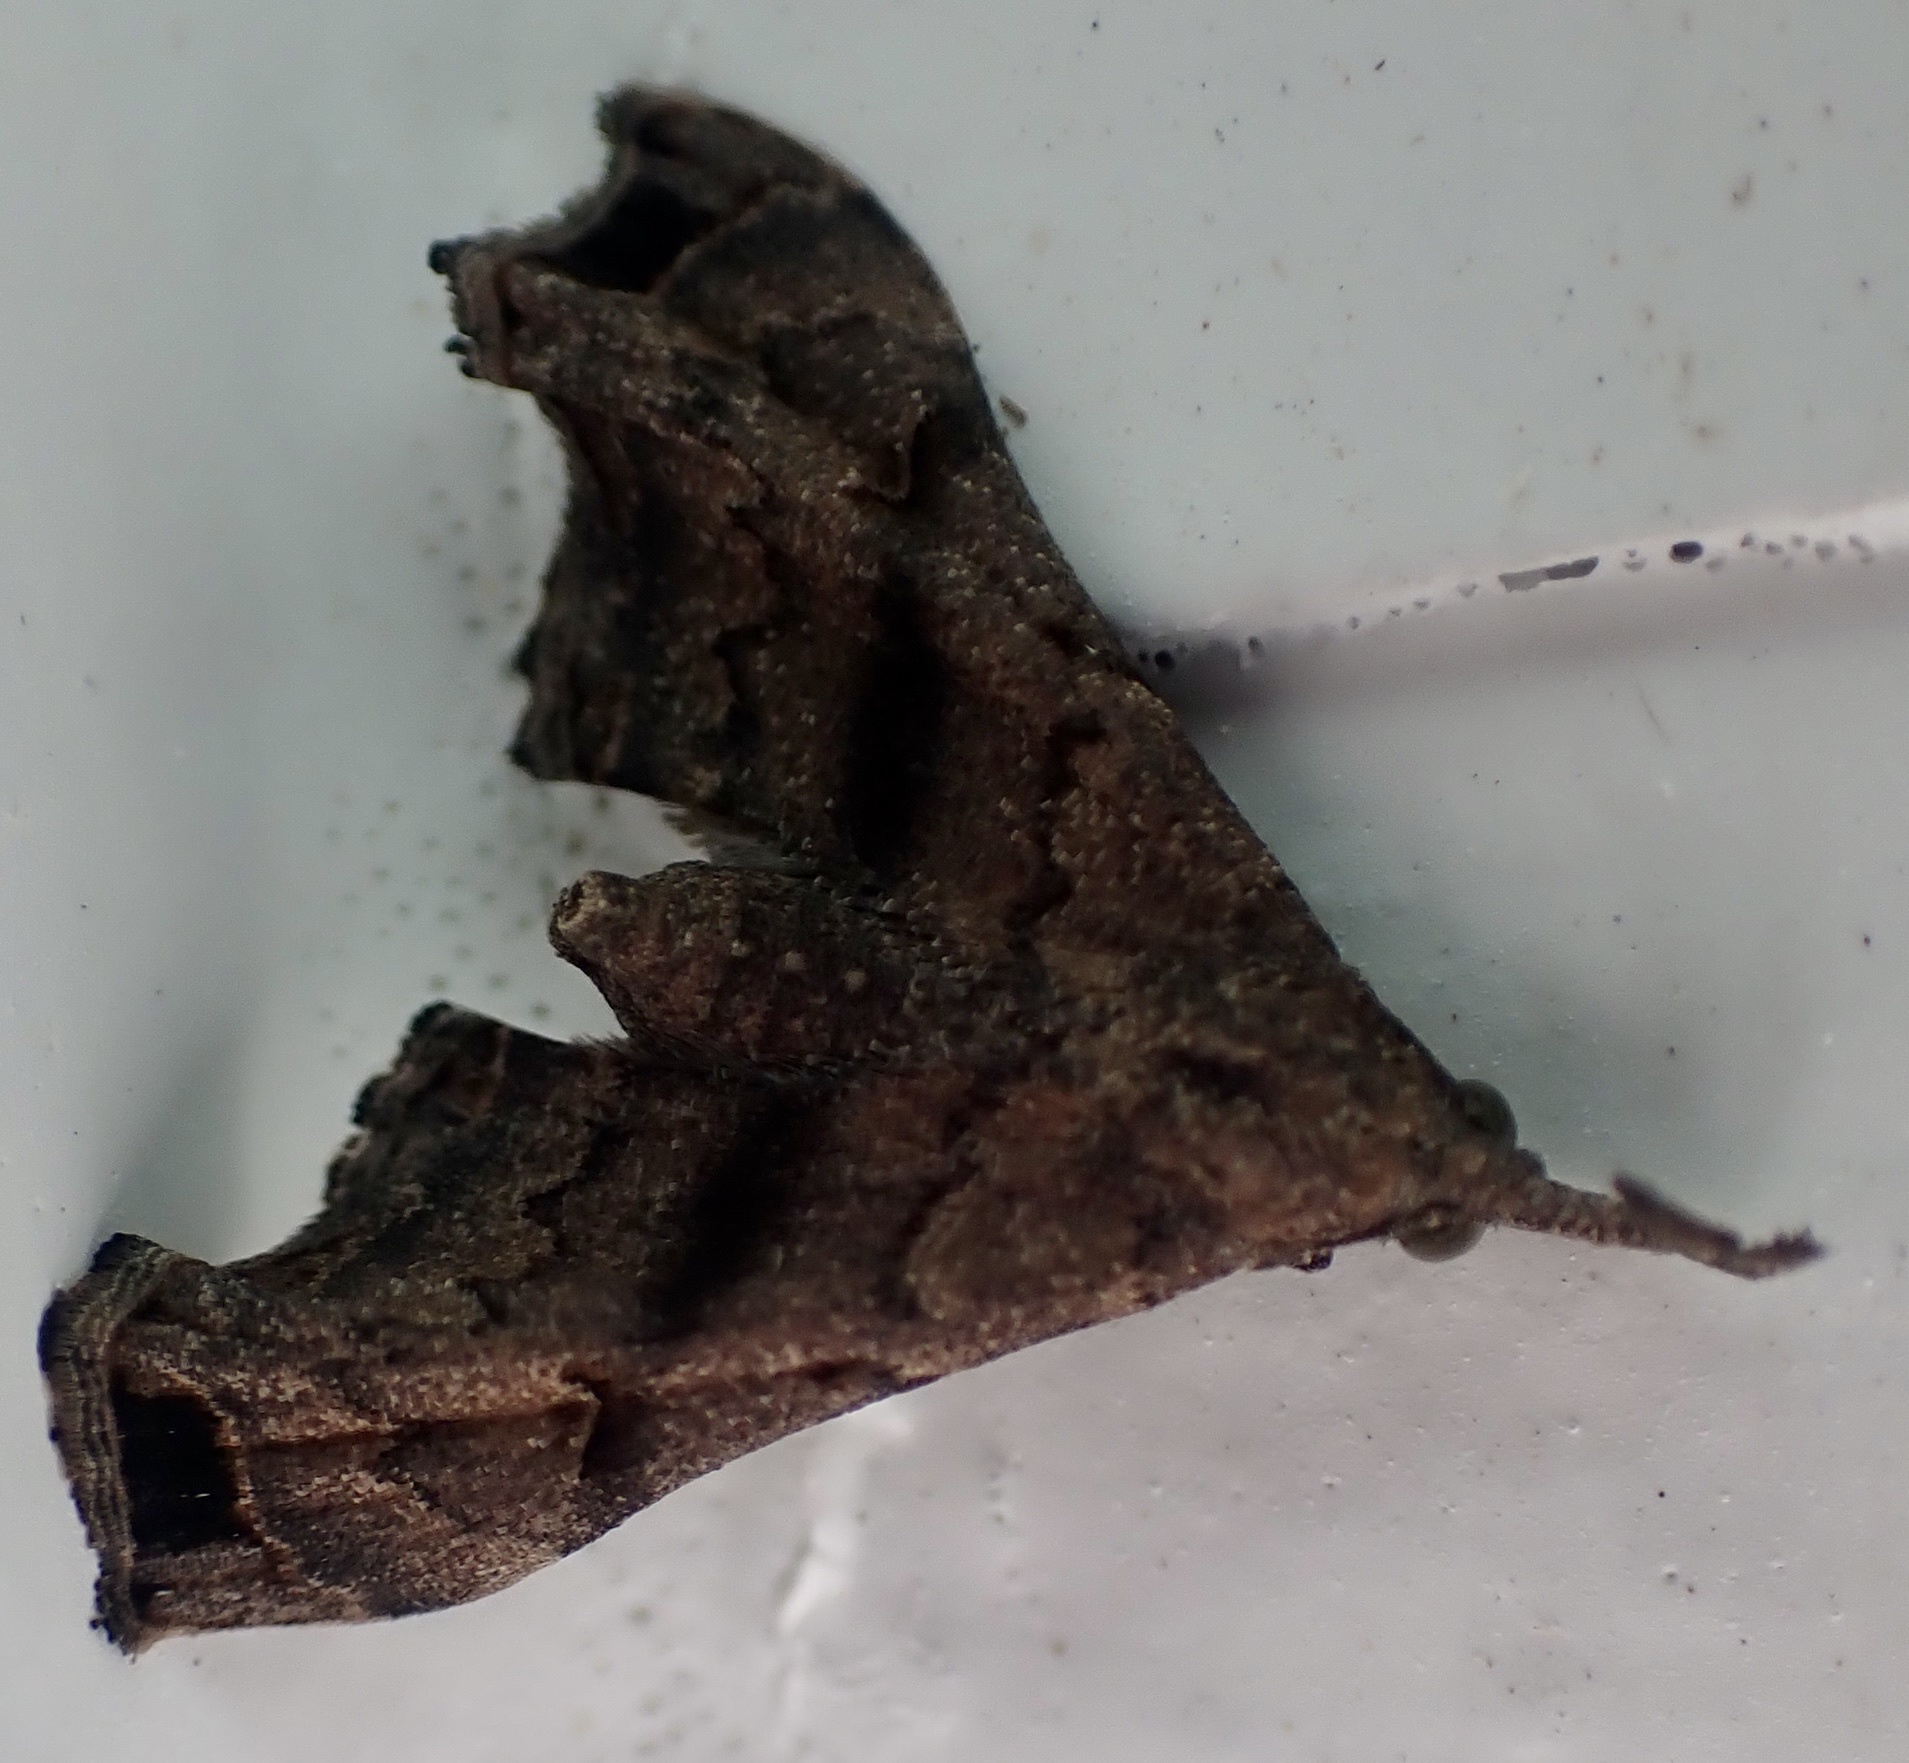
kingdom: Animalia
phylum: Arthropoda
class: Insecta
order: Lepidoptera
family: Erebidae
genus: Palthis
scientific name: Palthis asopialis
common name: Faint-spotted palthis moth
